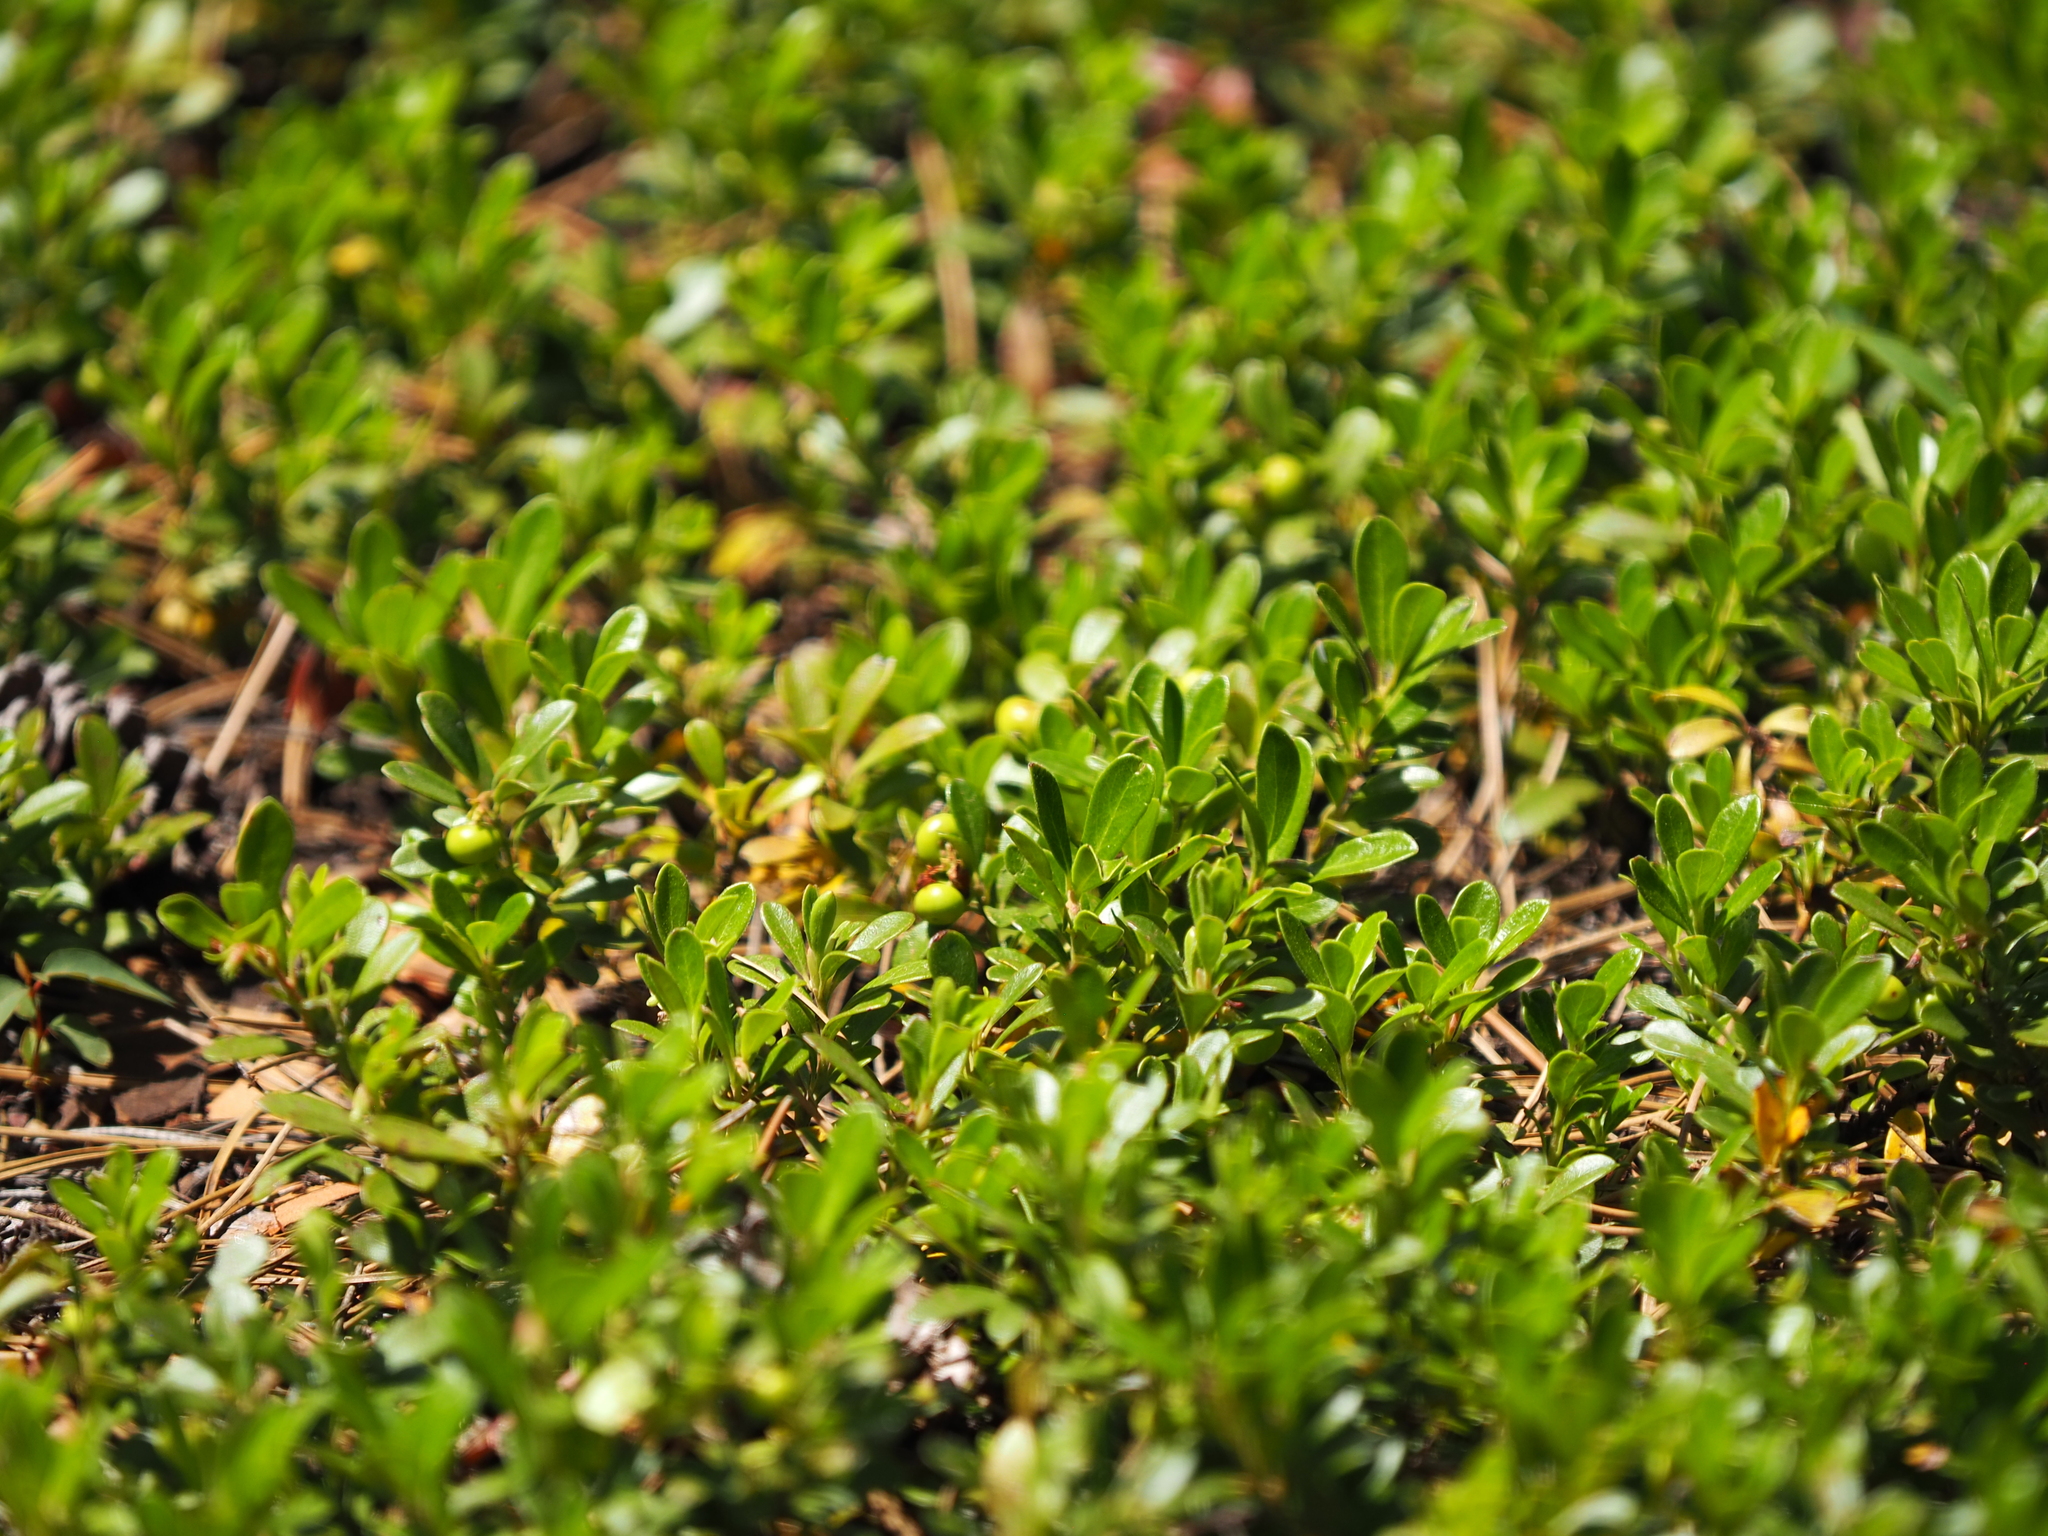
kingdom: Plantae
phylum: Tracheophyta
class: Magnoliopsida
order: Ericales
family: Ericaceae
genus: Arctostaphylos
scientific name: Arctostaphylos uva-ursi
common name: Bearberry
